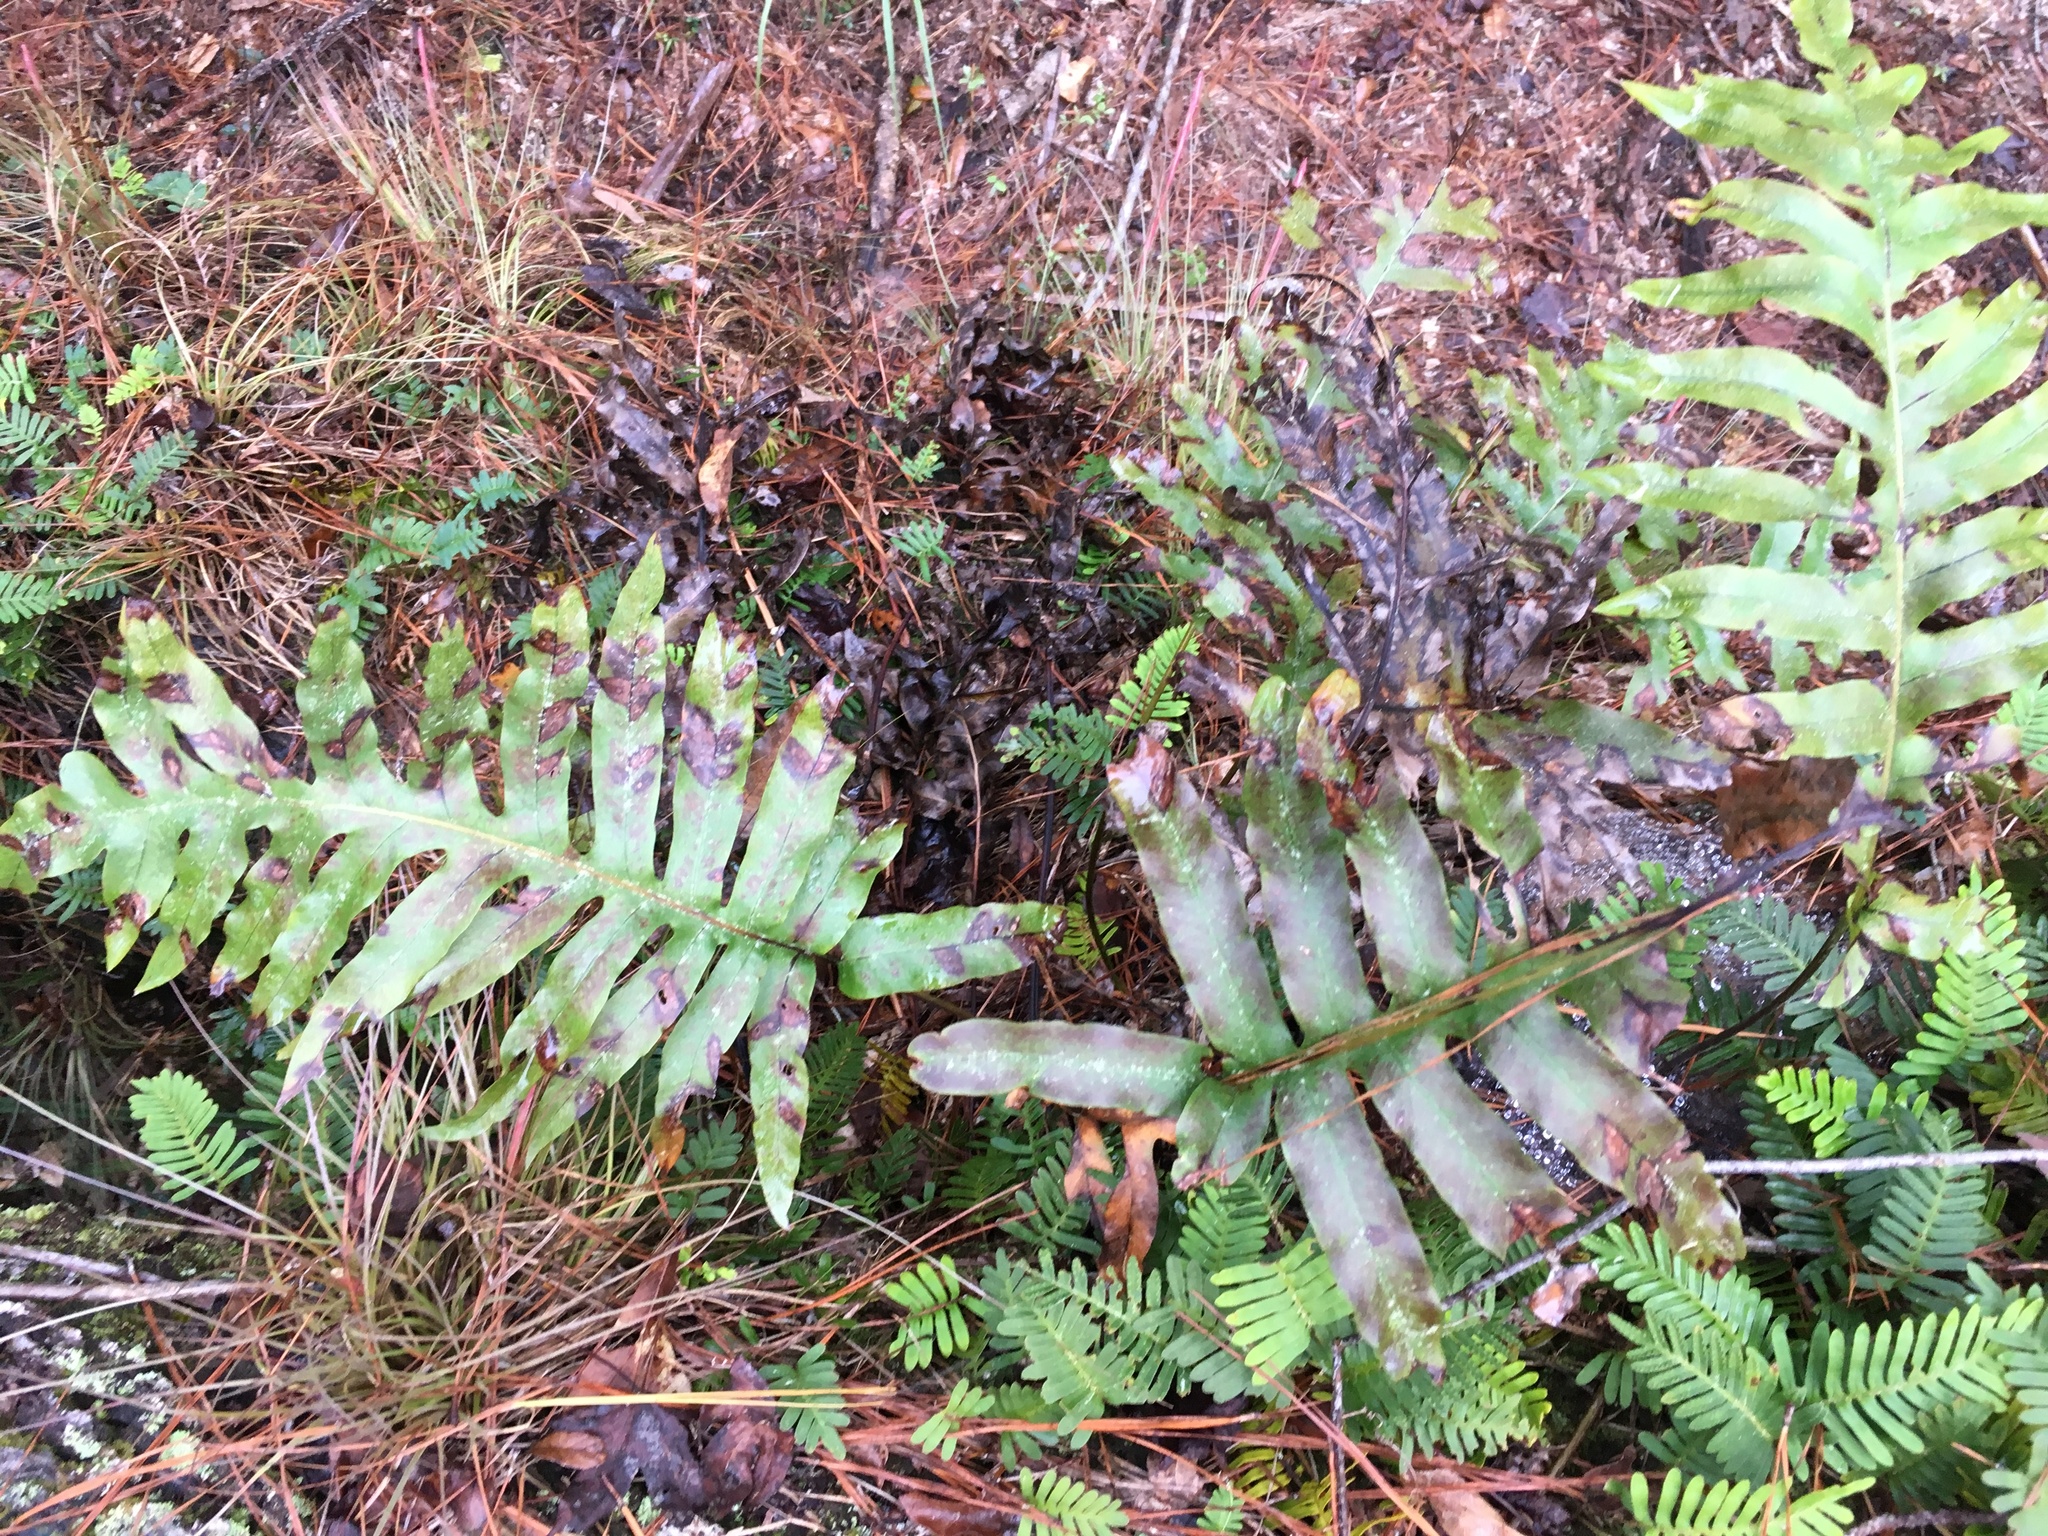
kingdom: Plantae
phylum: Tracheophyta
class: Polypodiopsida
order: Polypodiales
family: Blechnaceae
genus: Lorinseria
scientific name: Lorinseria areolata
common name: Dwarf chain fern
